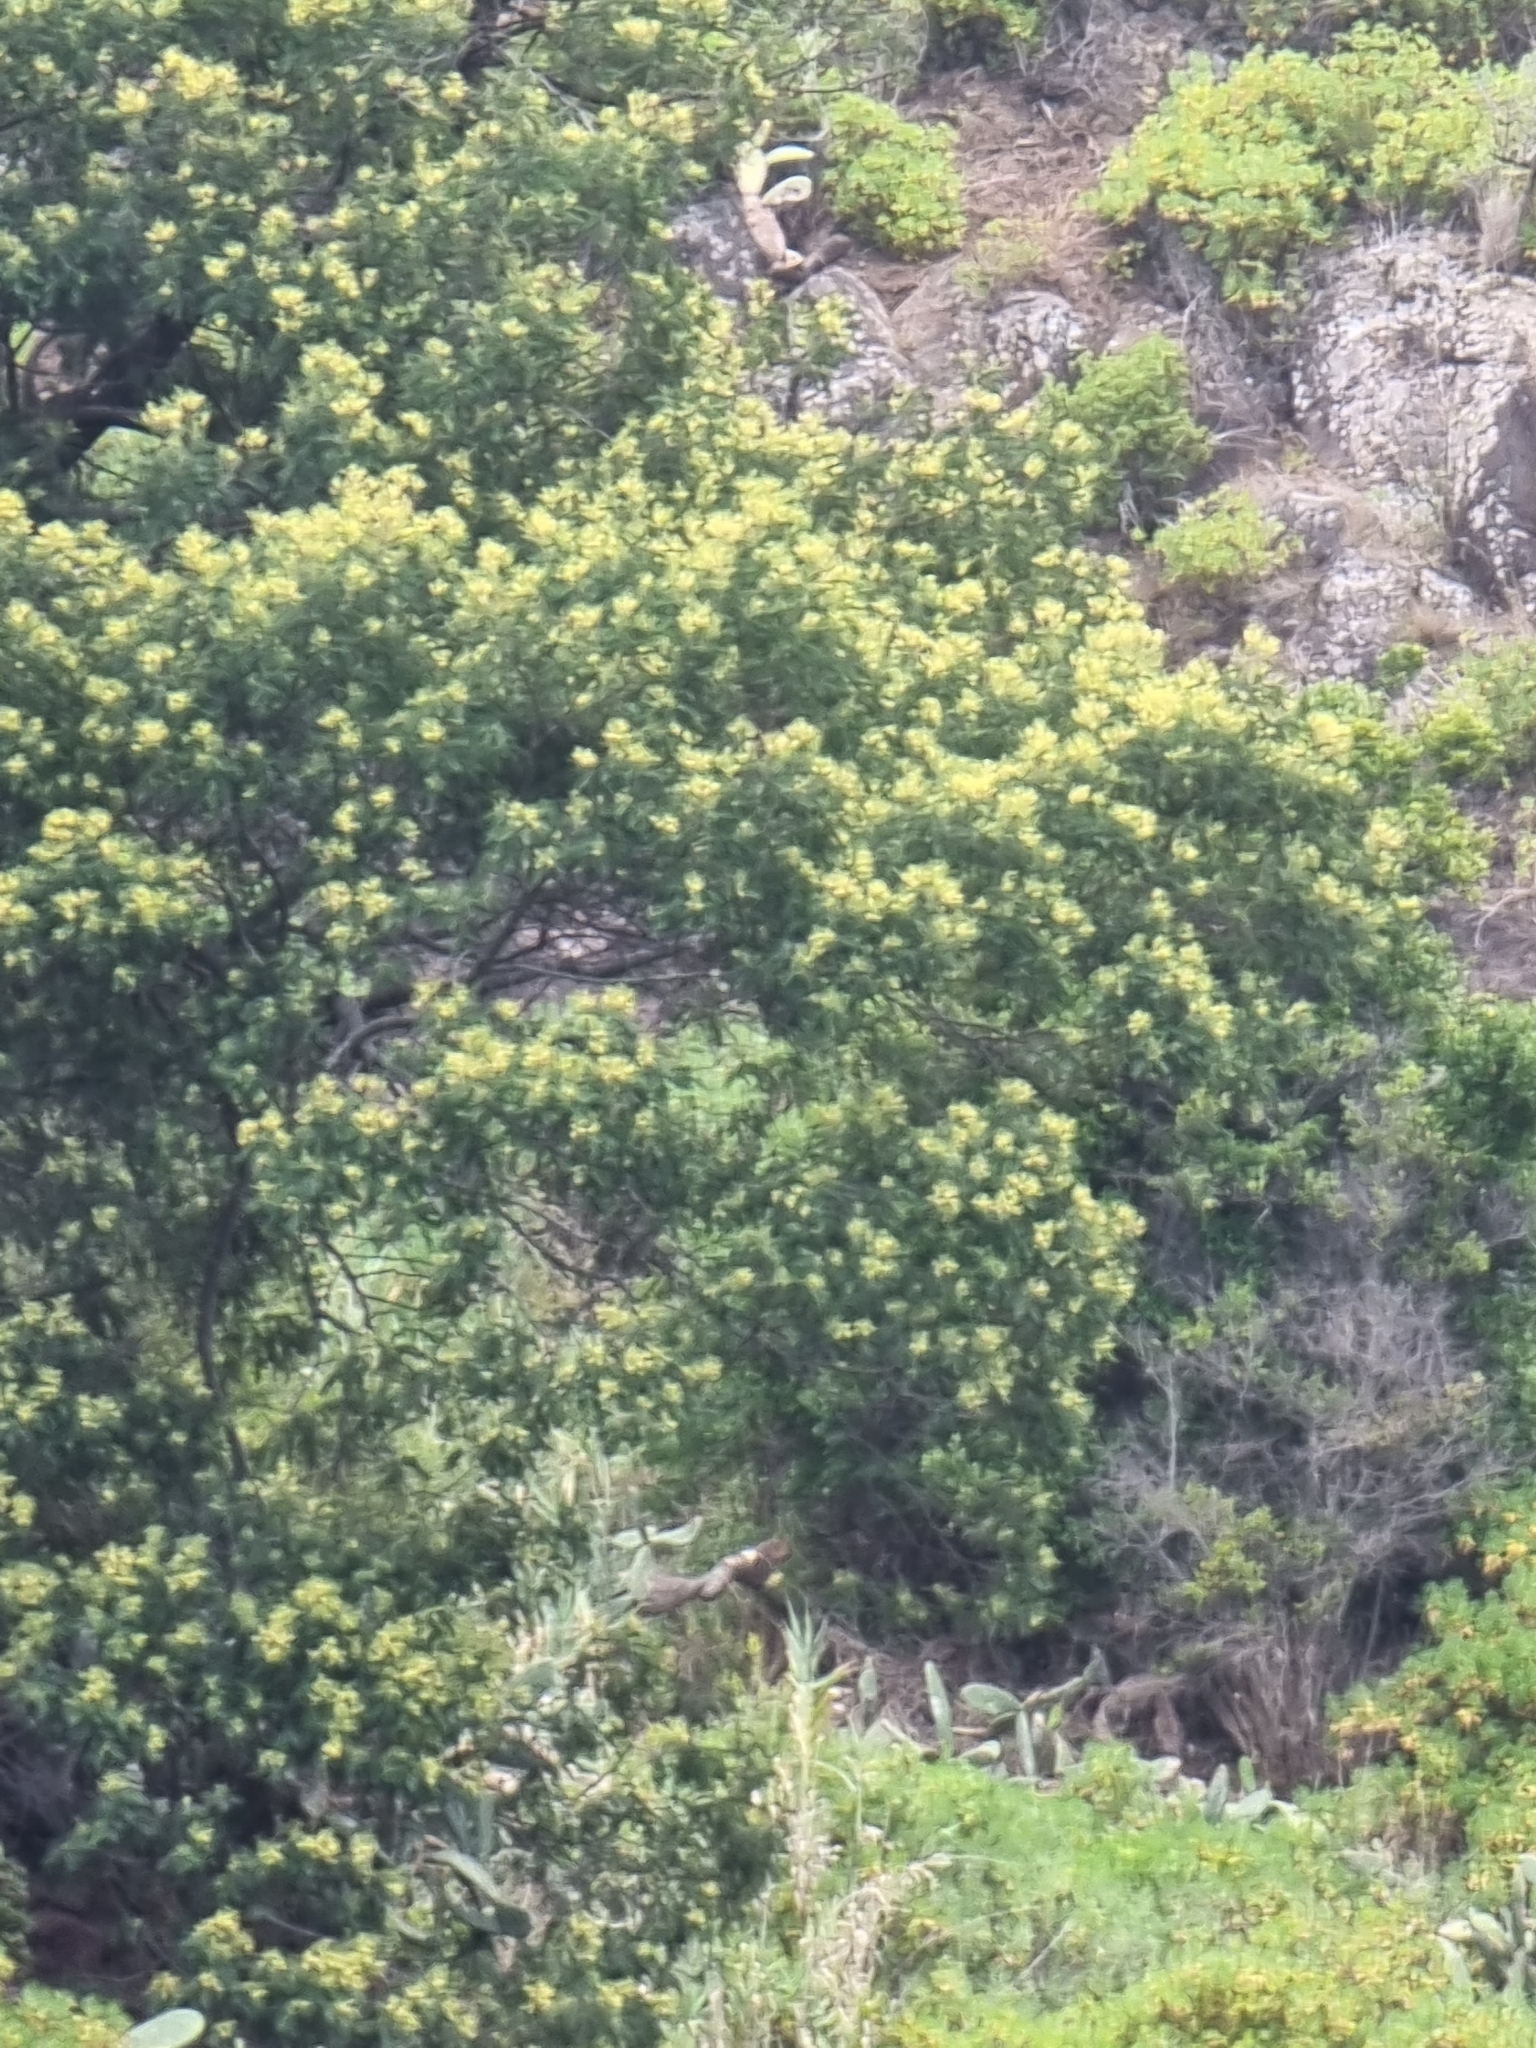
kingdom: Plantae
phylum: Tracheophyta
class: Magnoliopsida
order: Fabales
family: Fabaceae
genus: Acacia
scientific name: Acacia mearnsii
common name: Black wattle
